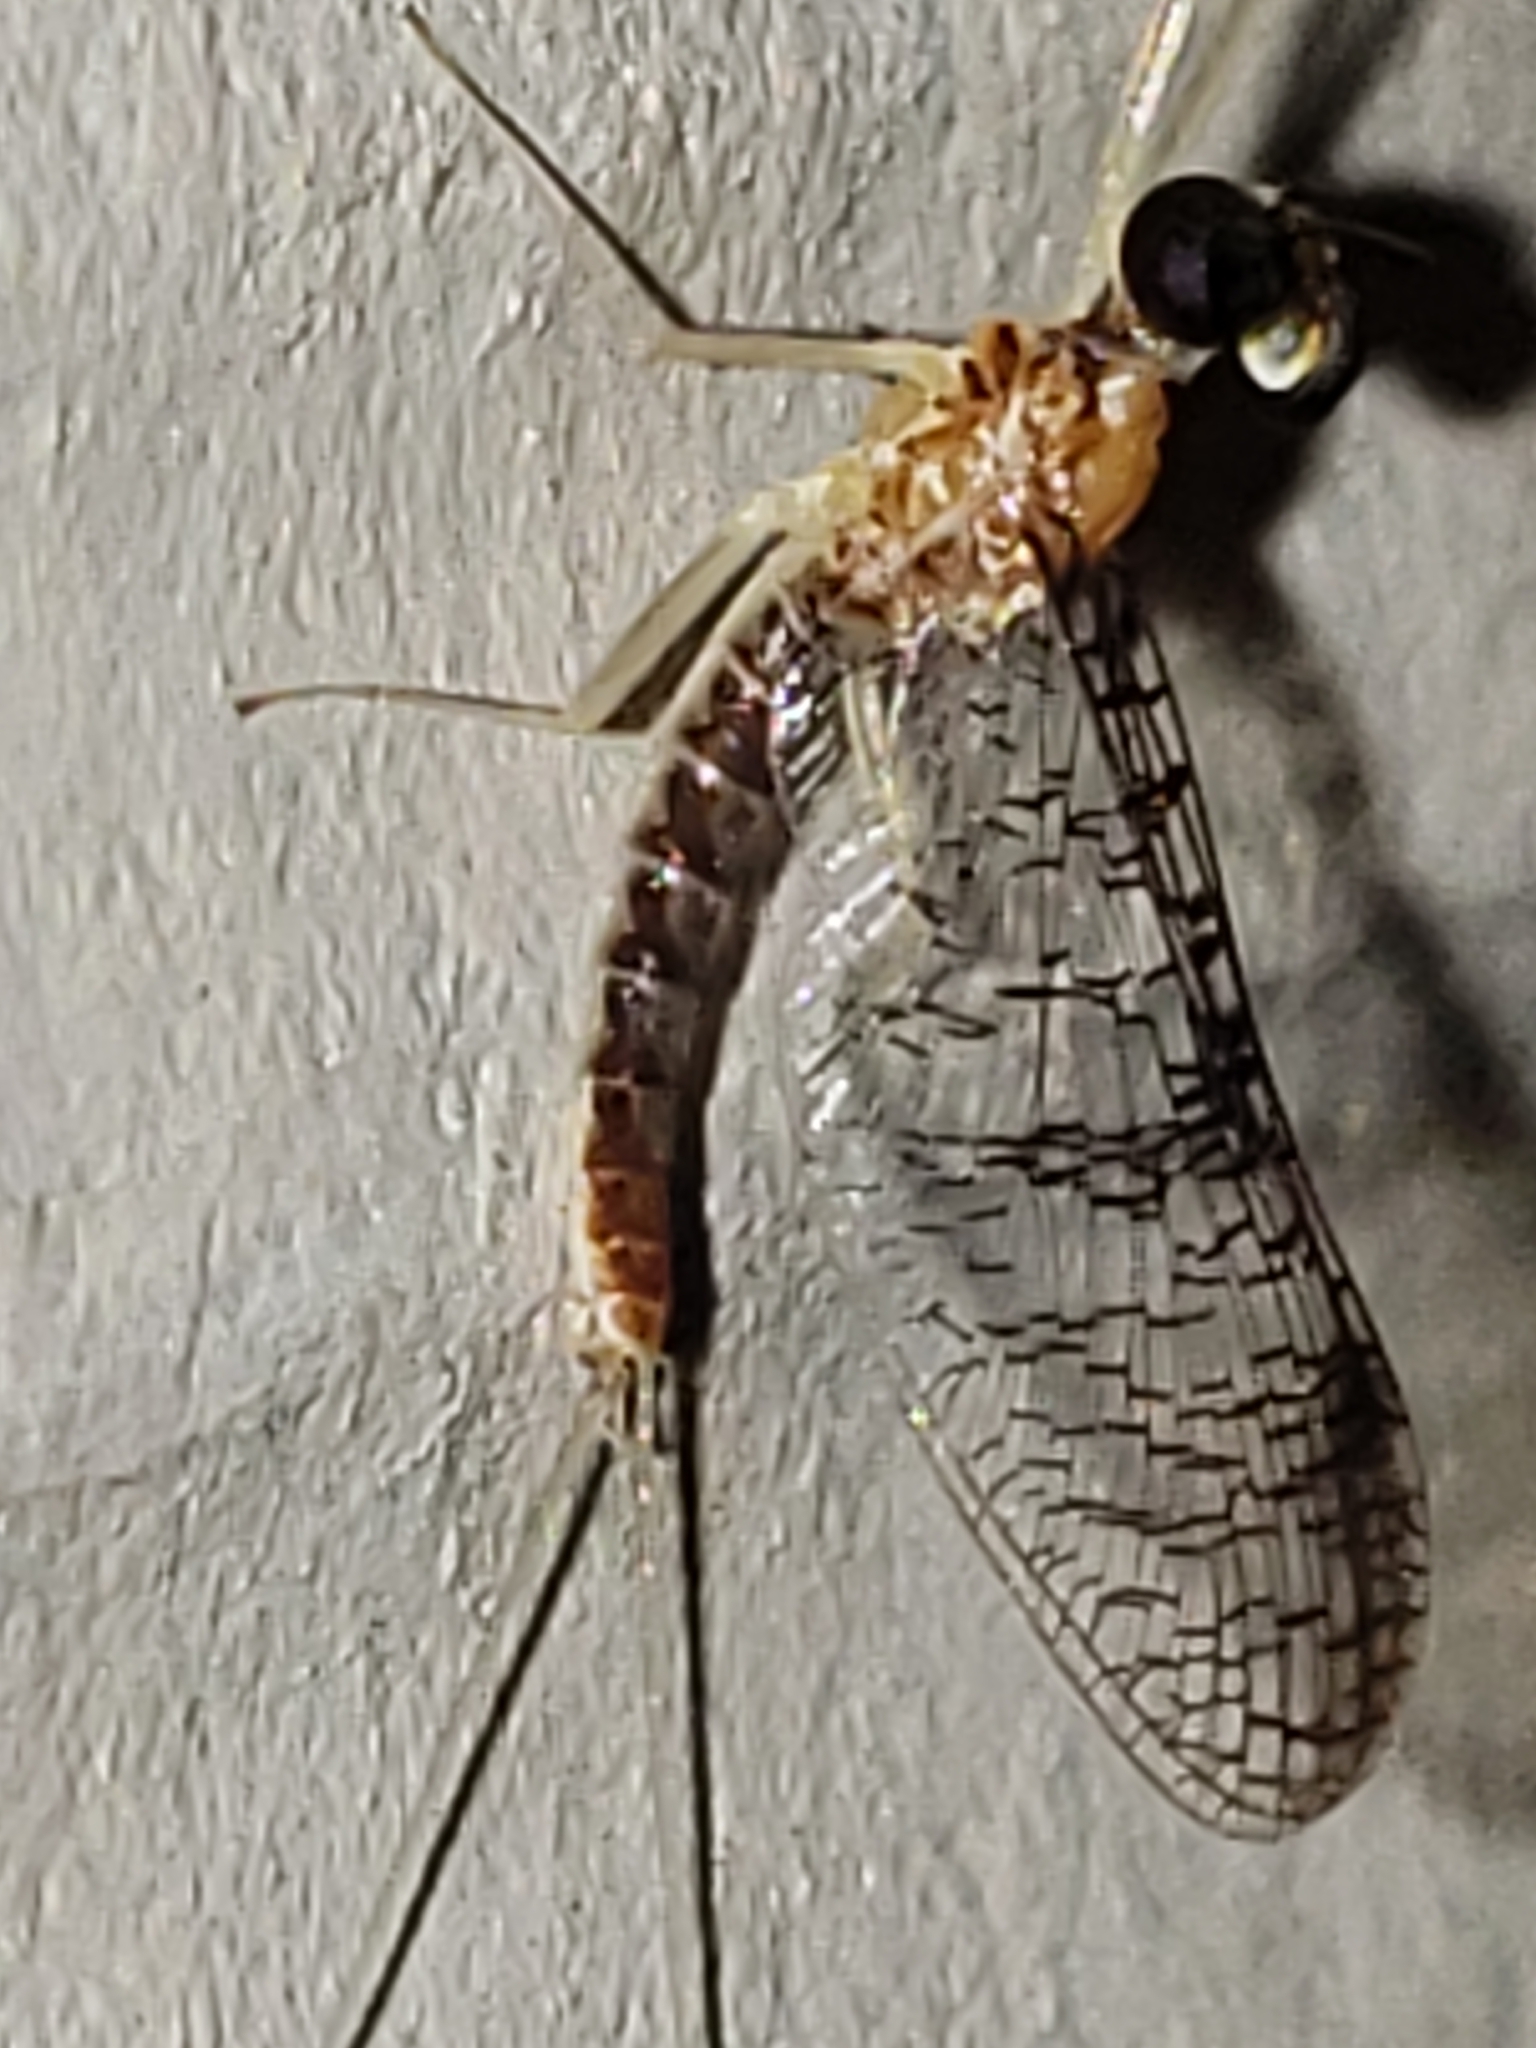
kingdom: Animalia
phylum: Arthropoda
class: Insecta
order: Ephemeroptera
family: Heptageniidae
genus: Leucrocuta
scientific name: Leucrocuta umbratica
